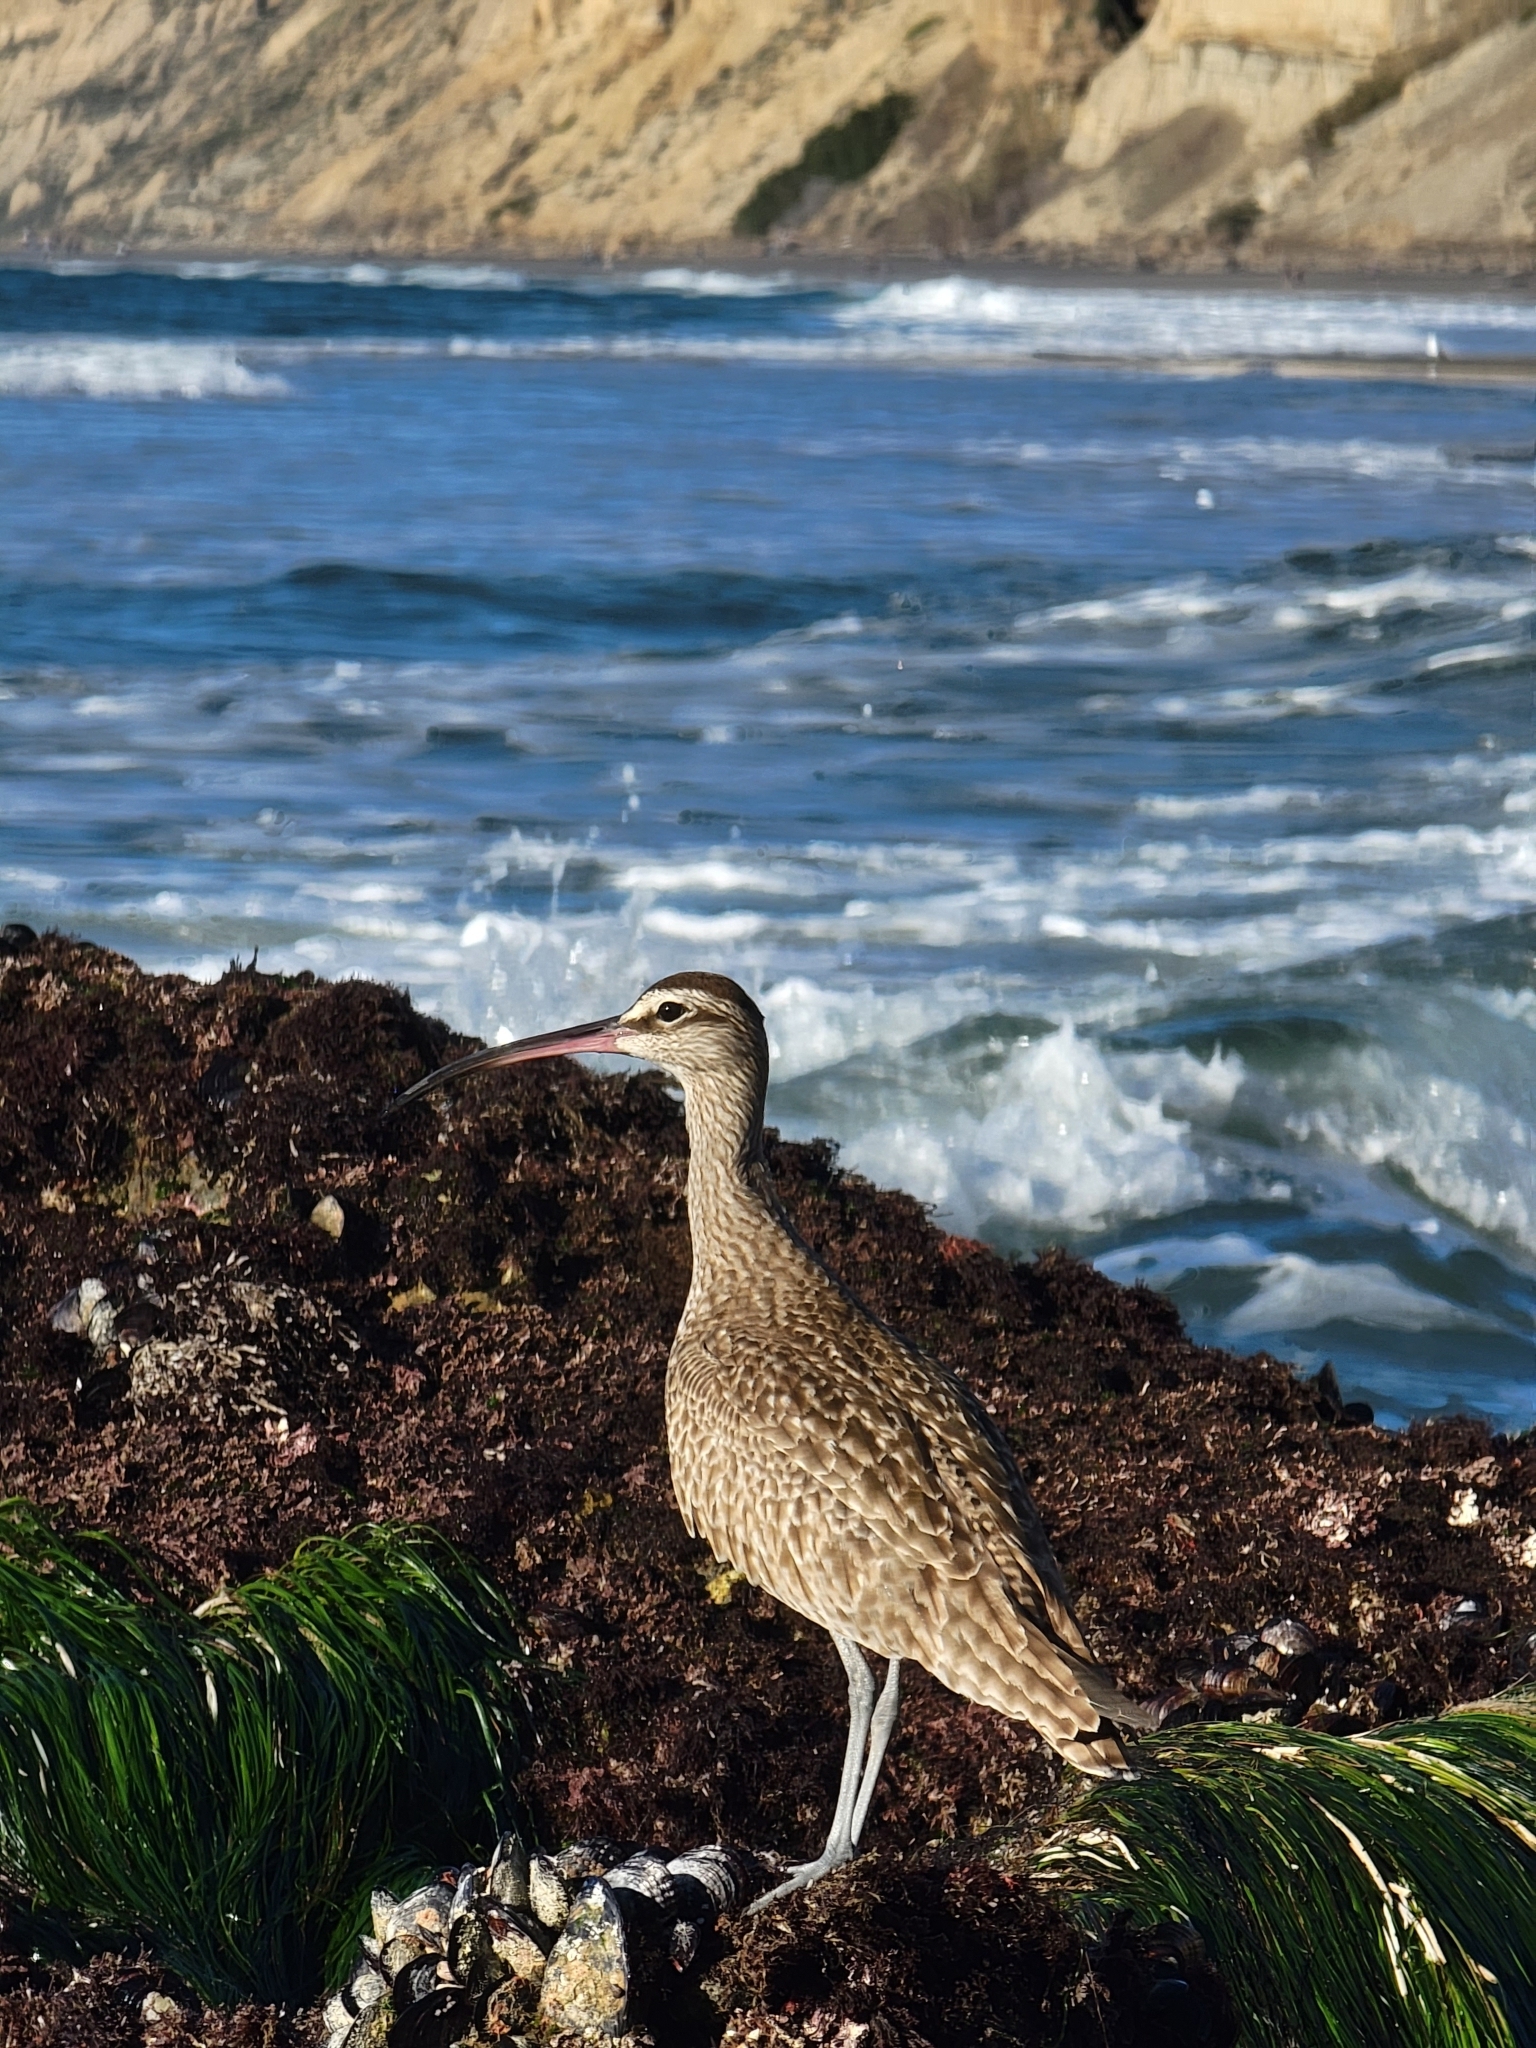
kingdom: Animalia
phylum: Chordata
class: Aves
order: Charadriiformes
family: Scolopacidae
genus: Numenius
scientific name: Numenius phaeopus
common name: Whimbrel
